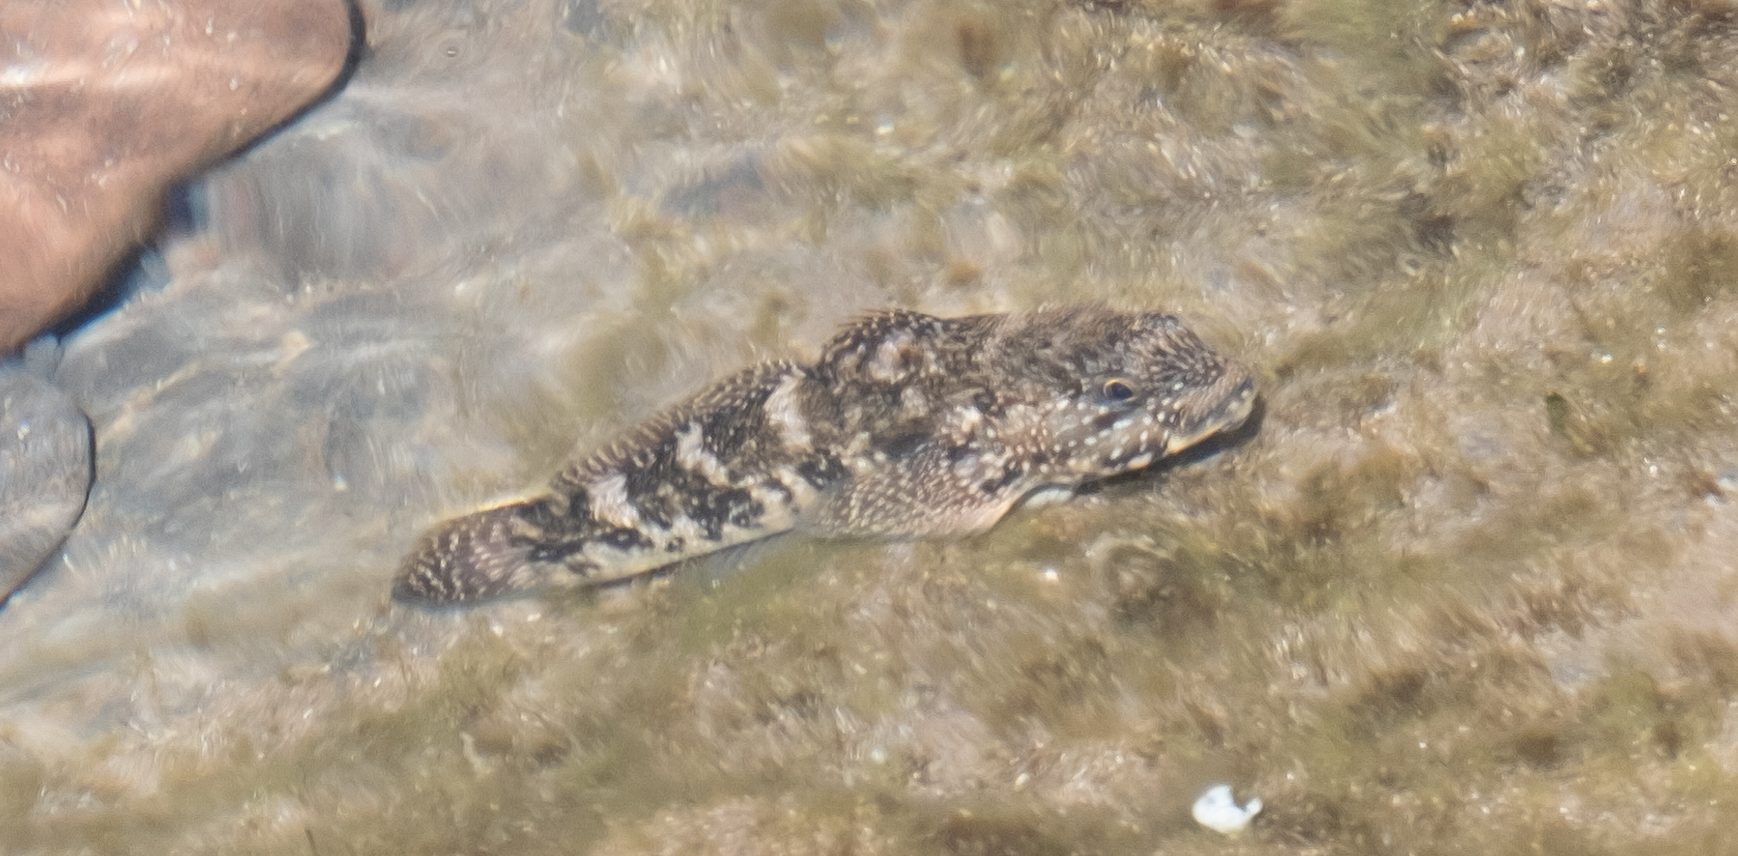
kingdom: Animalia
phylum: Chordata
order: Perciformes
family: Gobiidae
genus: Mauligobius
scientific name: Mauligobius maderensis
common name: Rock goby
